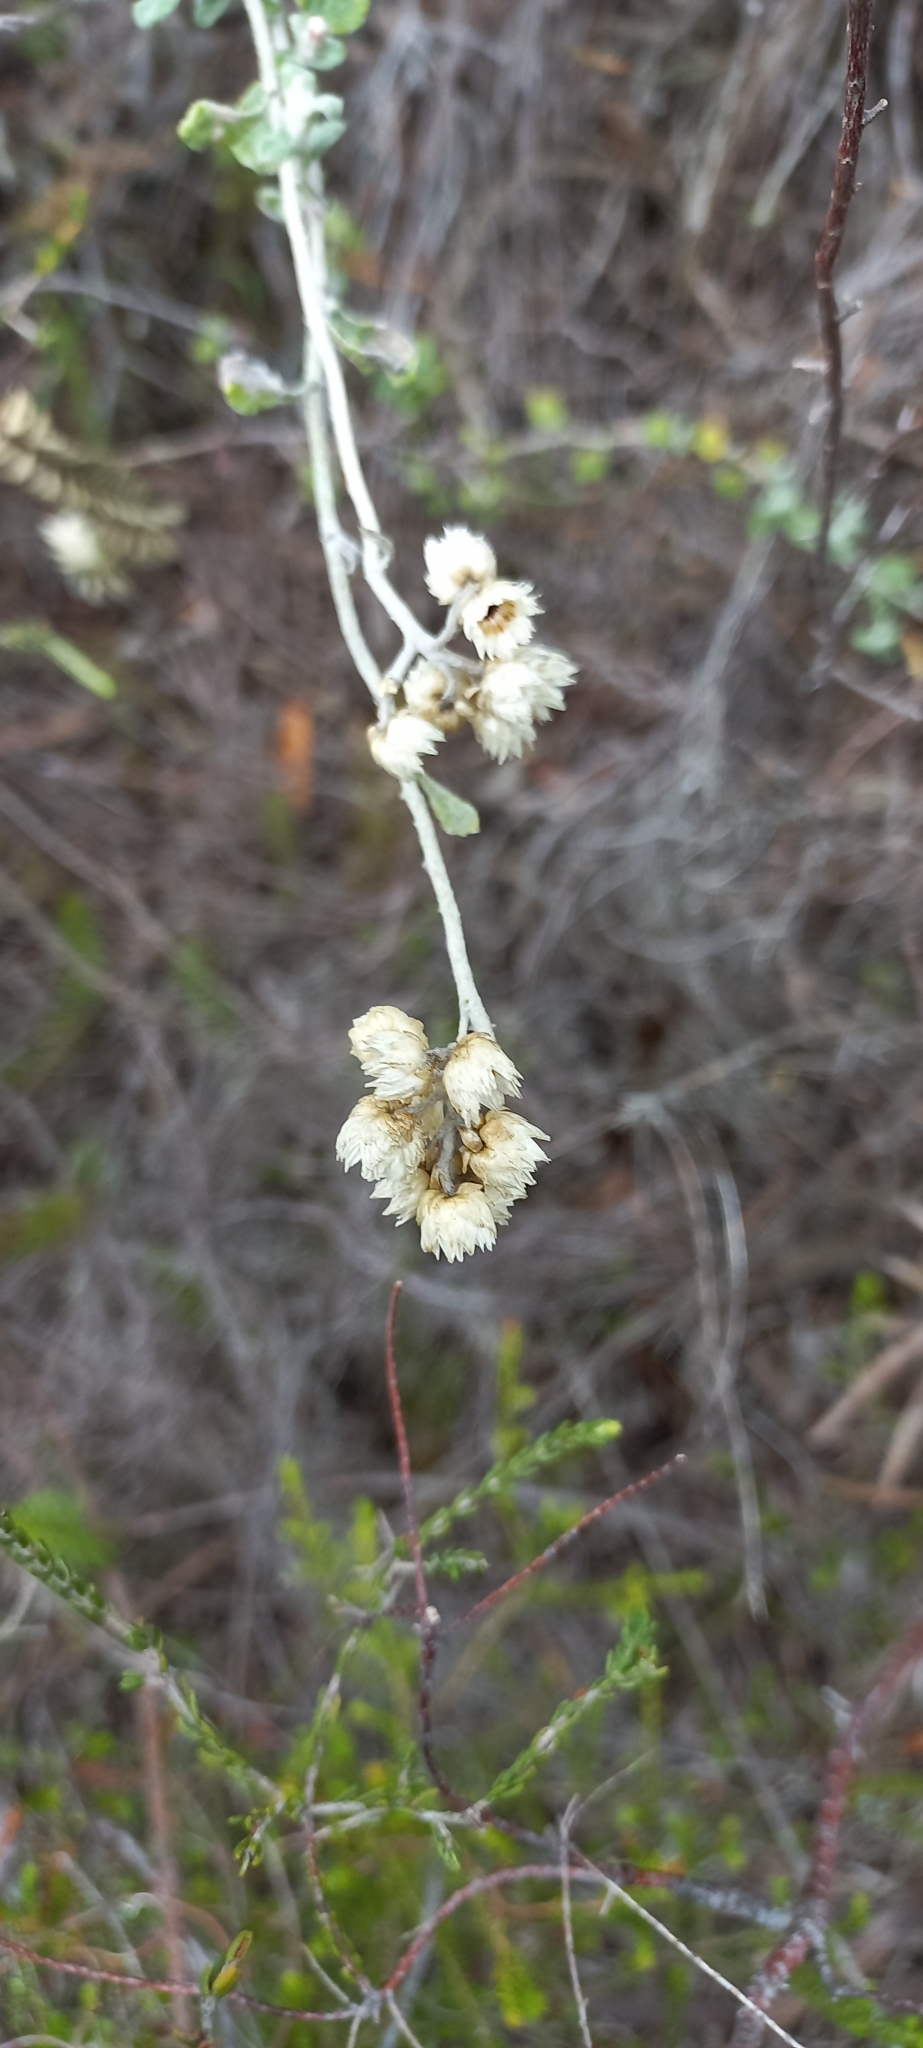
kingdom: Plantae
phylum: Tracheophyta
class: Magnoliopsida
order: Asterales
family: Asteraceae
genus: Helichrysum
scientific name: Helichrysum pandurifolium
